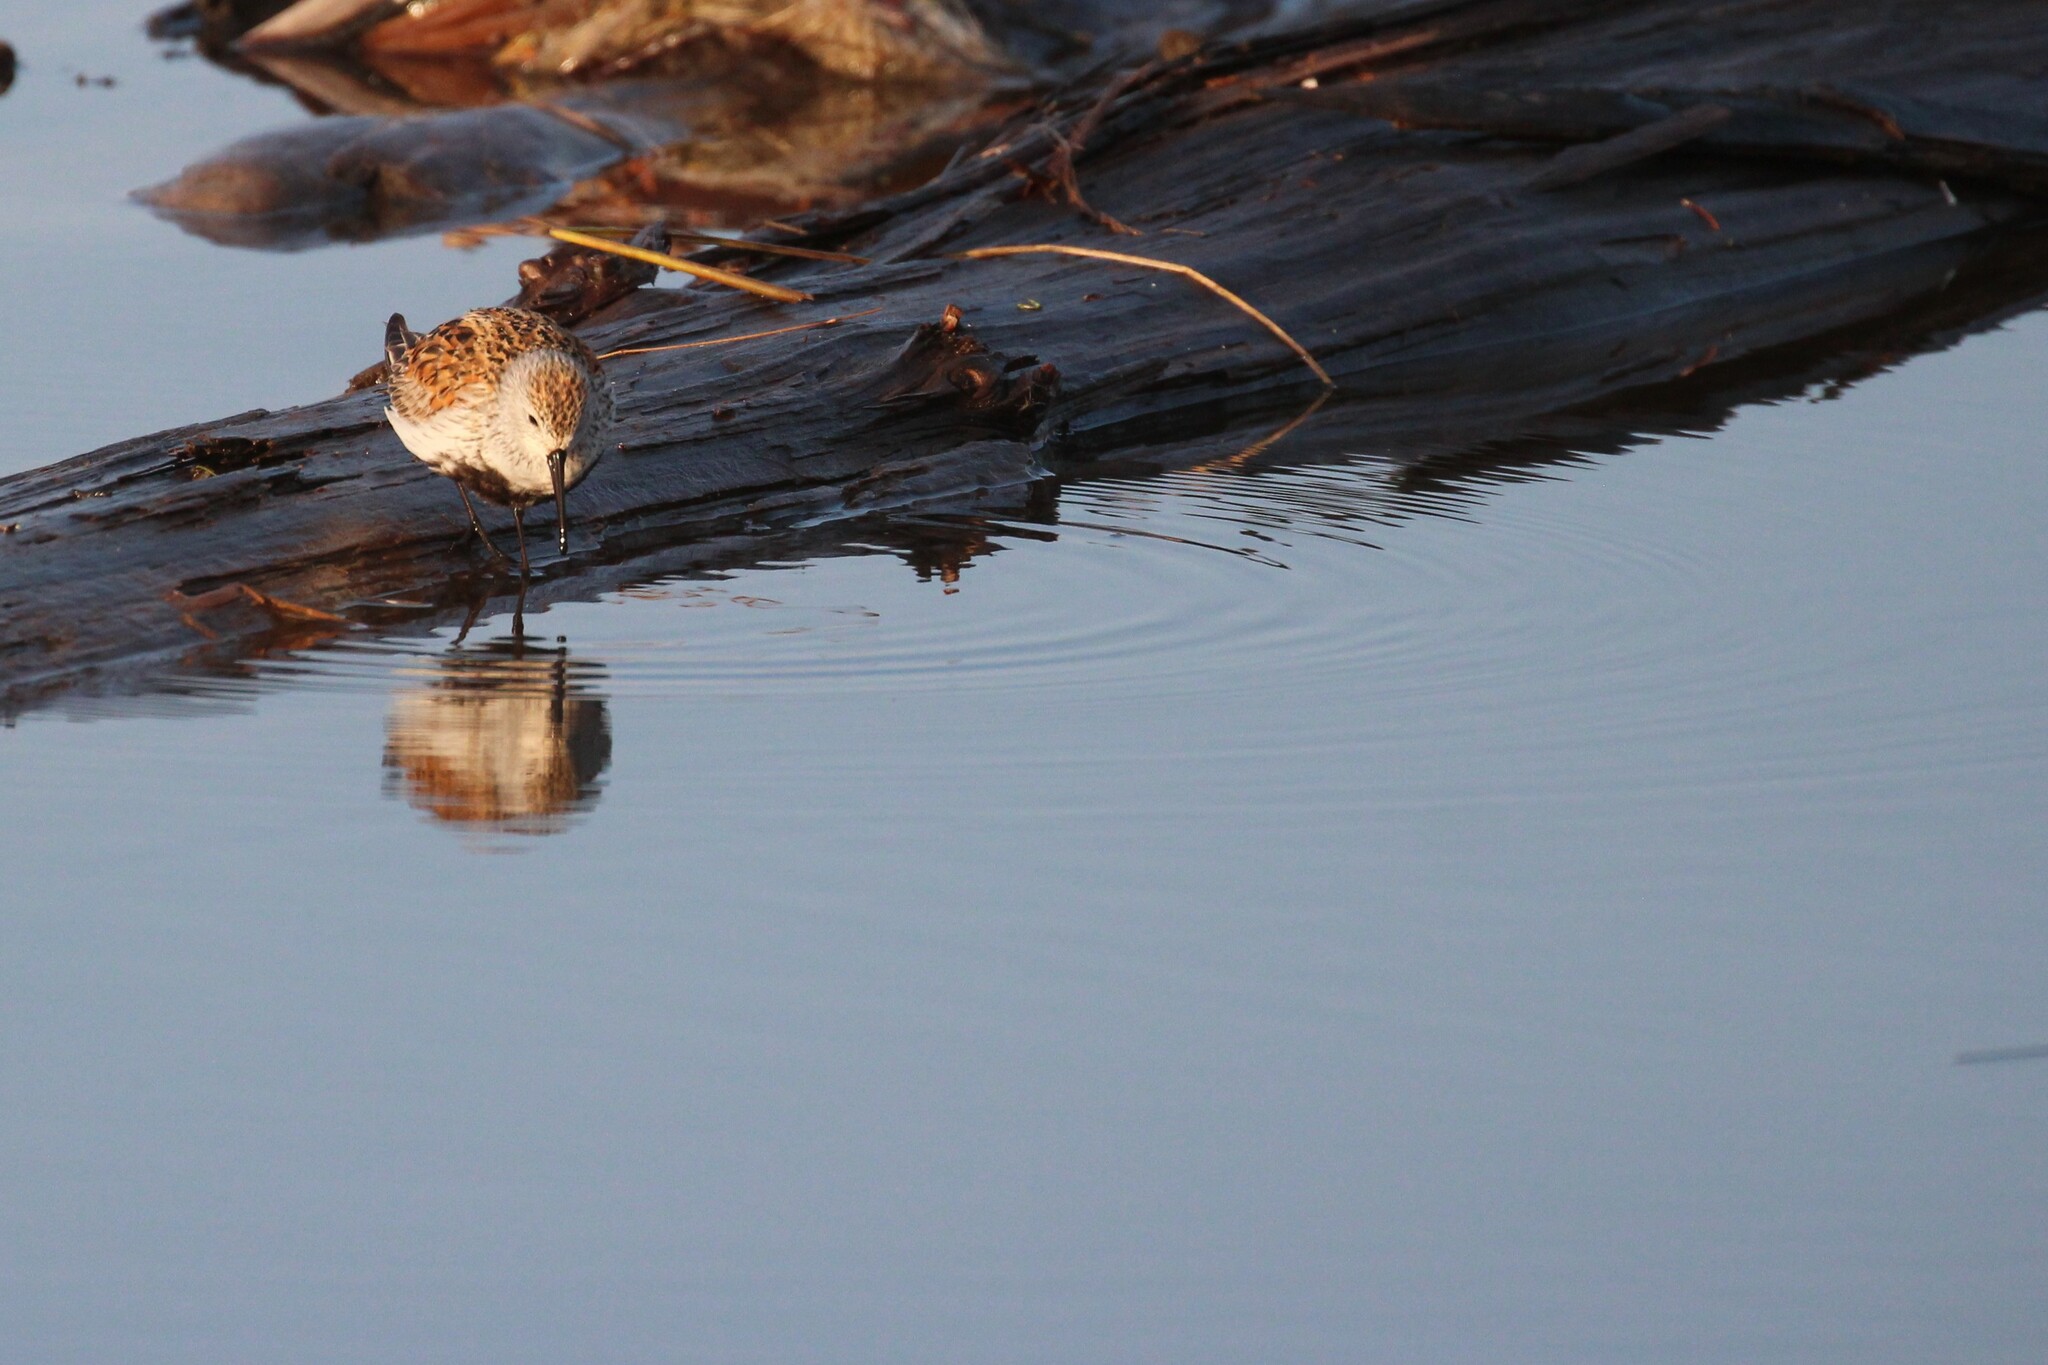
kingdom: Animalia
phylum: Chordata
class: Aves
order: Charadriiformes
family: Scolopacidae
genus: Calidris
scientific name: Calidris alpina
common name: Dunlin
